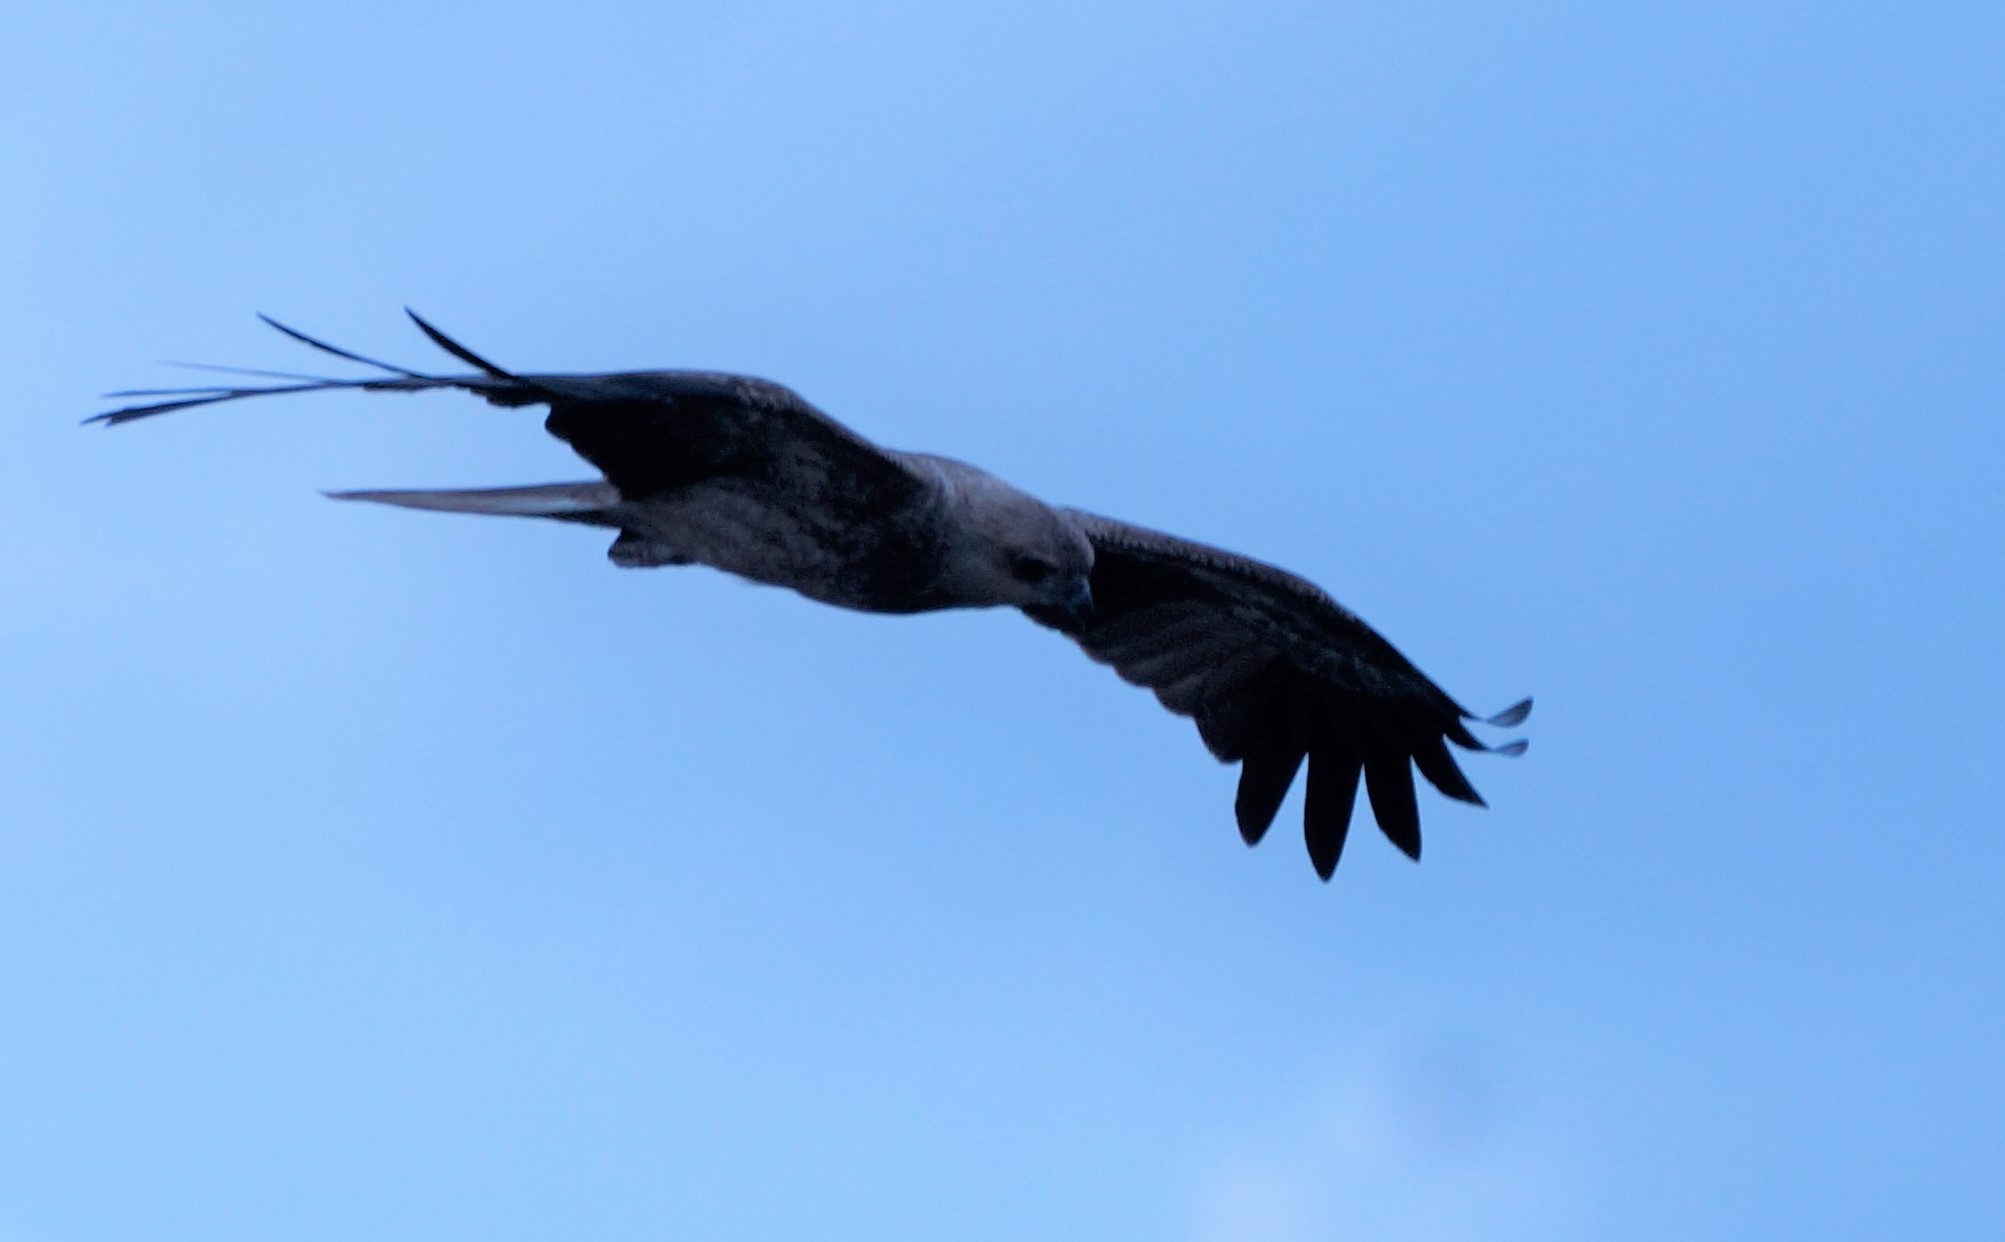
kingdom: Animalia
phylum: Chordata
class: Aves
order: Accipitriformes
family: Accipitridae
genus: Haliastur
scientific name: Haliastur sphenurus
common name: Whistling kite
